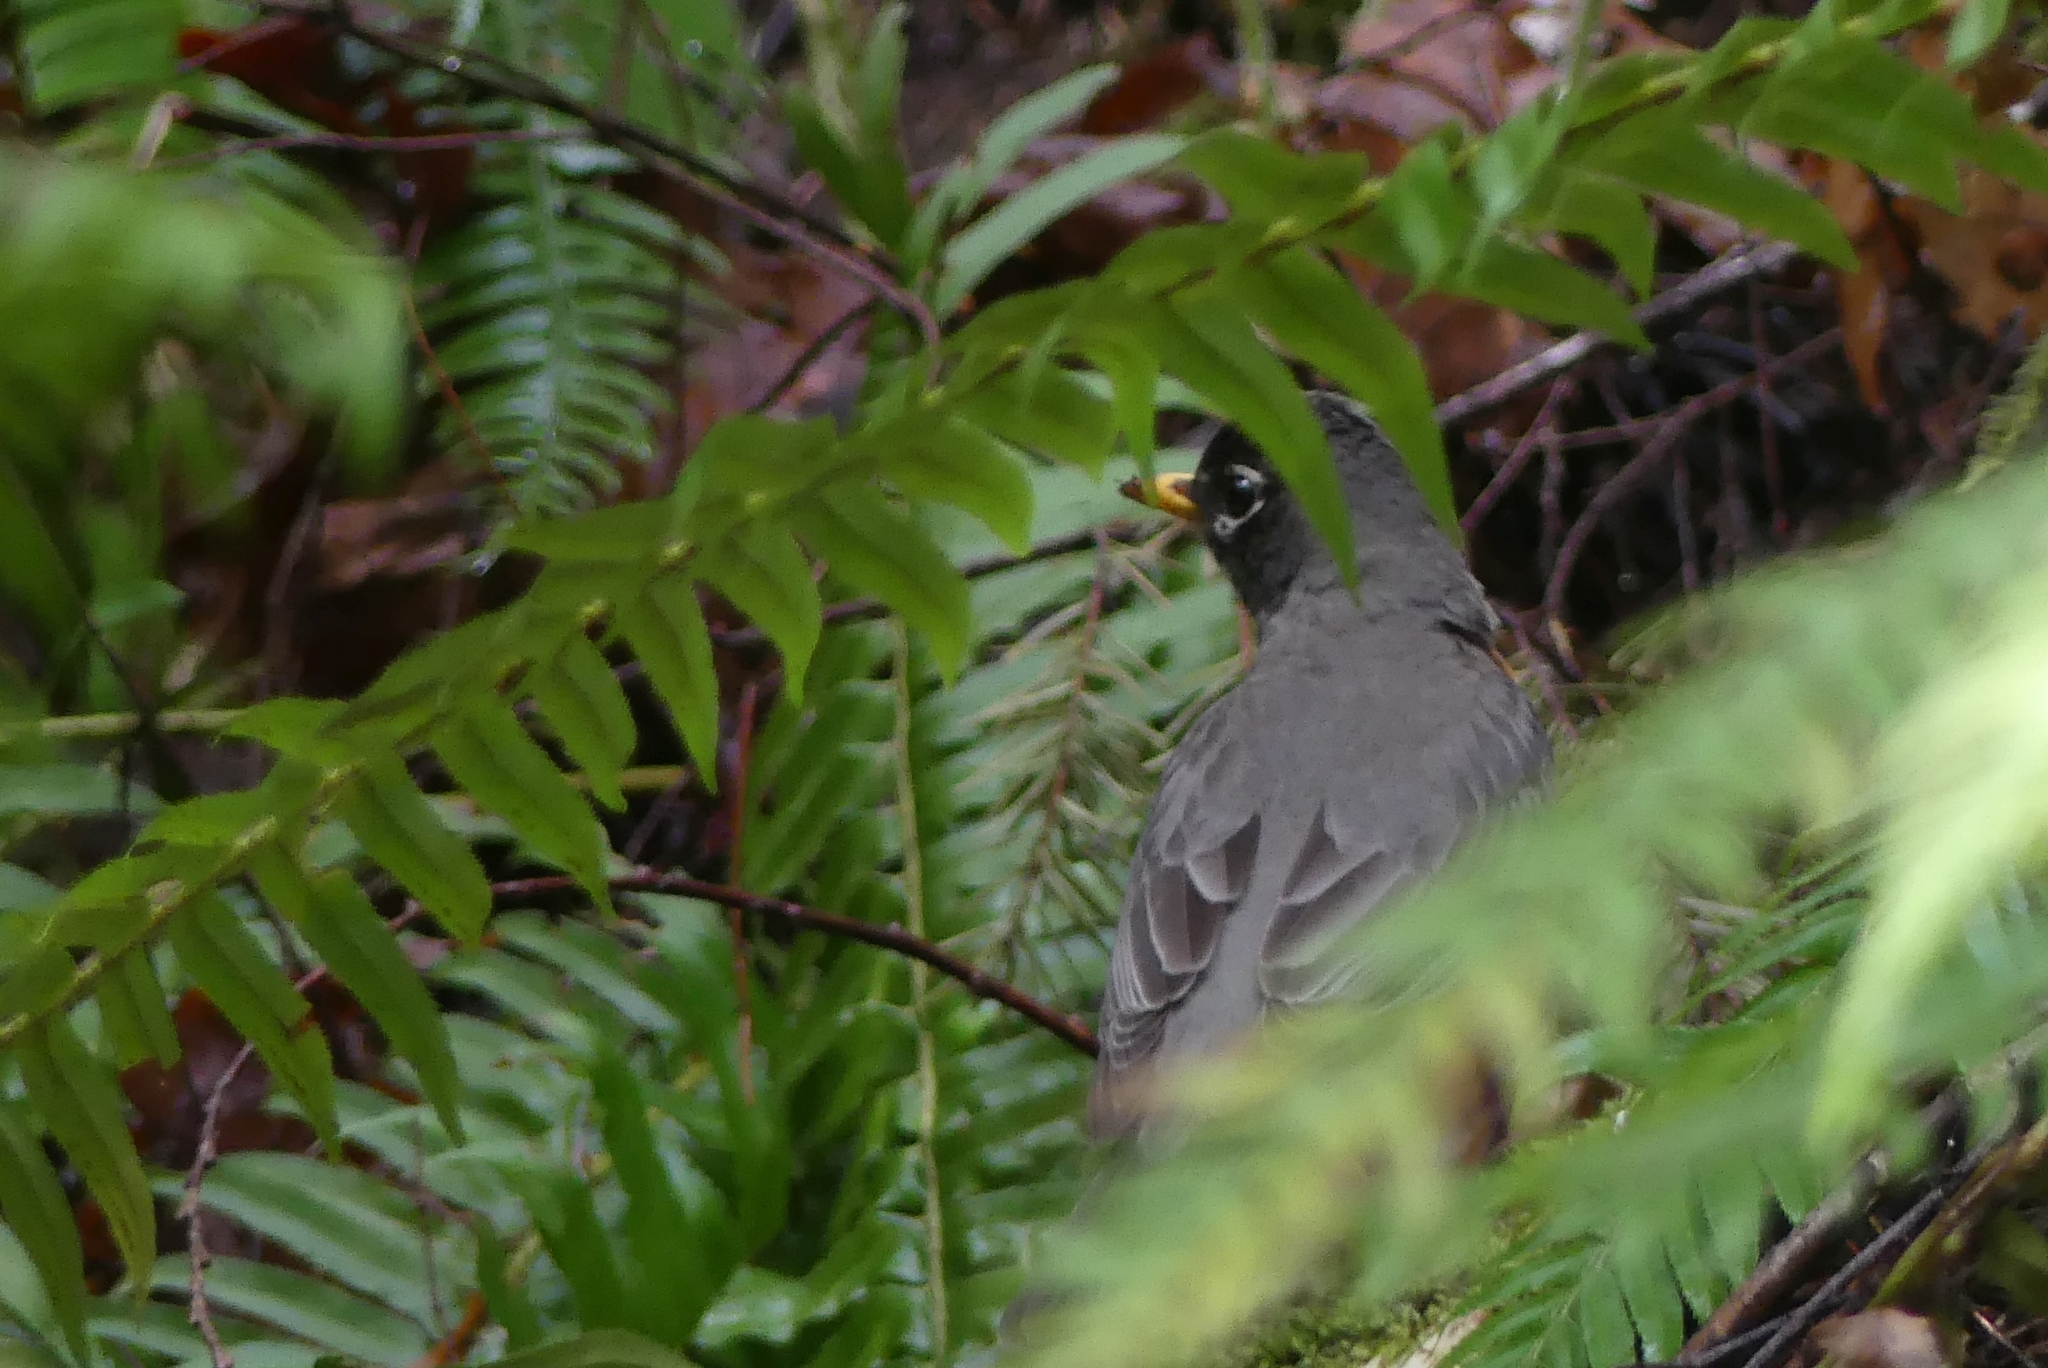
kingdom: Animalia
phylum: Chordata
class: Aves
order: Passeriformes
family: Turdidae
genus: Turdus
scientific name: Turdus migratorius
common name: American robin
